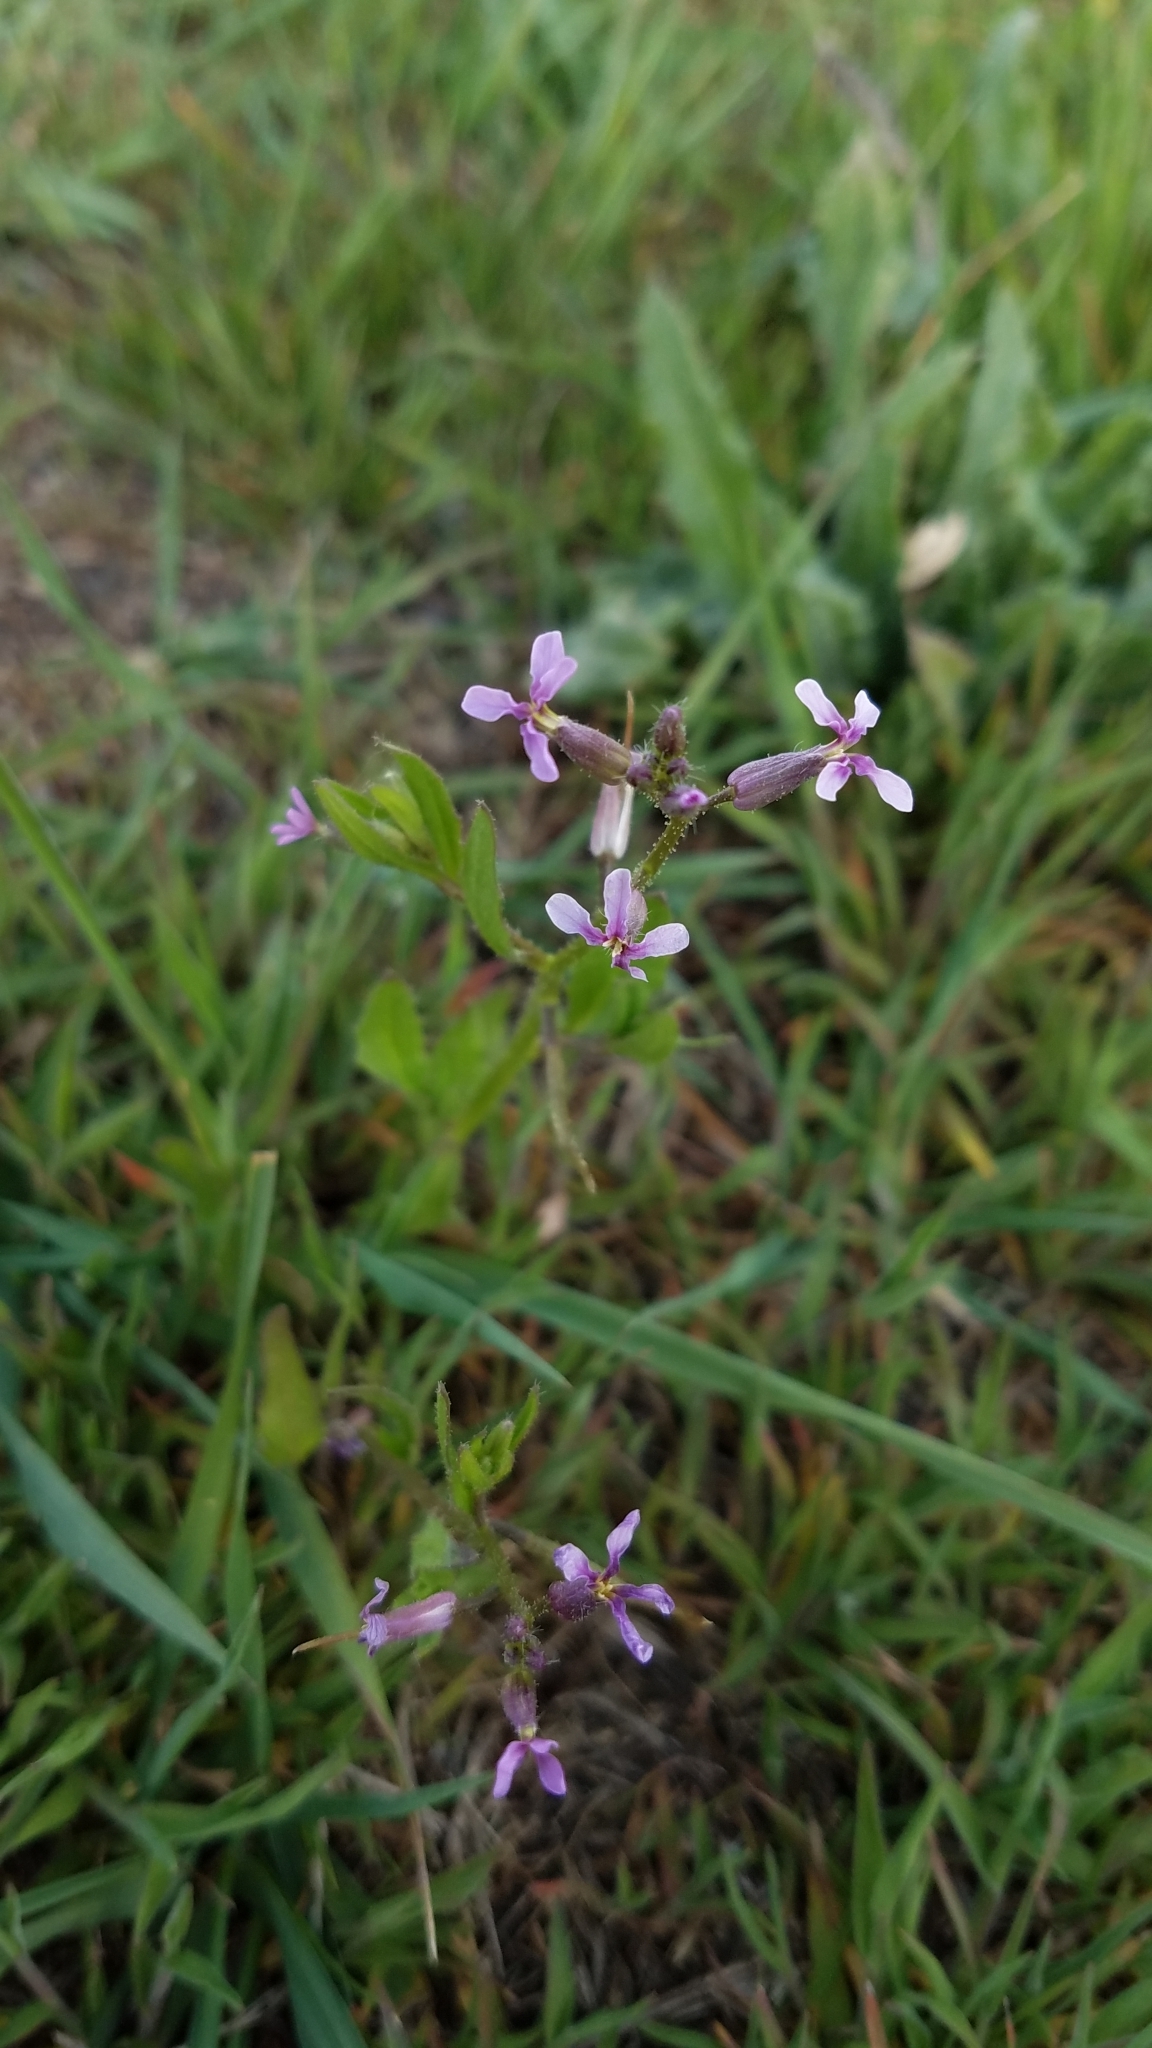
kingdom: Plantae
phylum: Tracheophyta
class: Magnoliopsida
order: Brassicales
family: Brassicaceae
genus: Chorispora
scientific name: Chorispora tenella
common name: Crossflower
